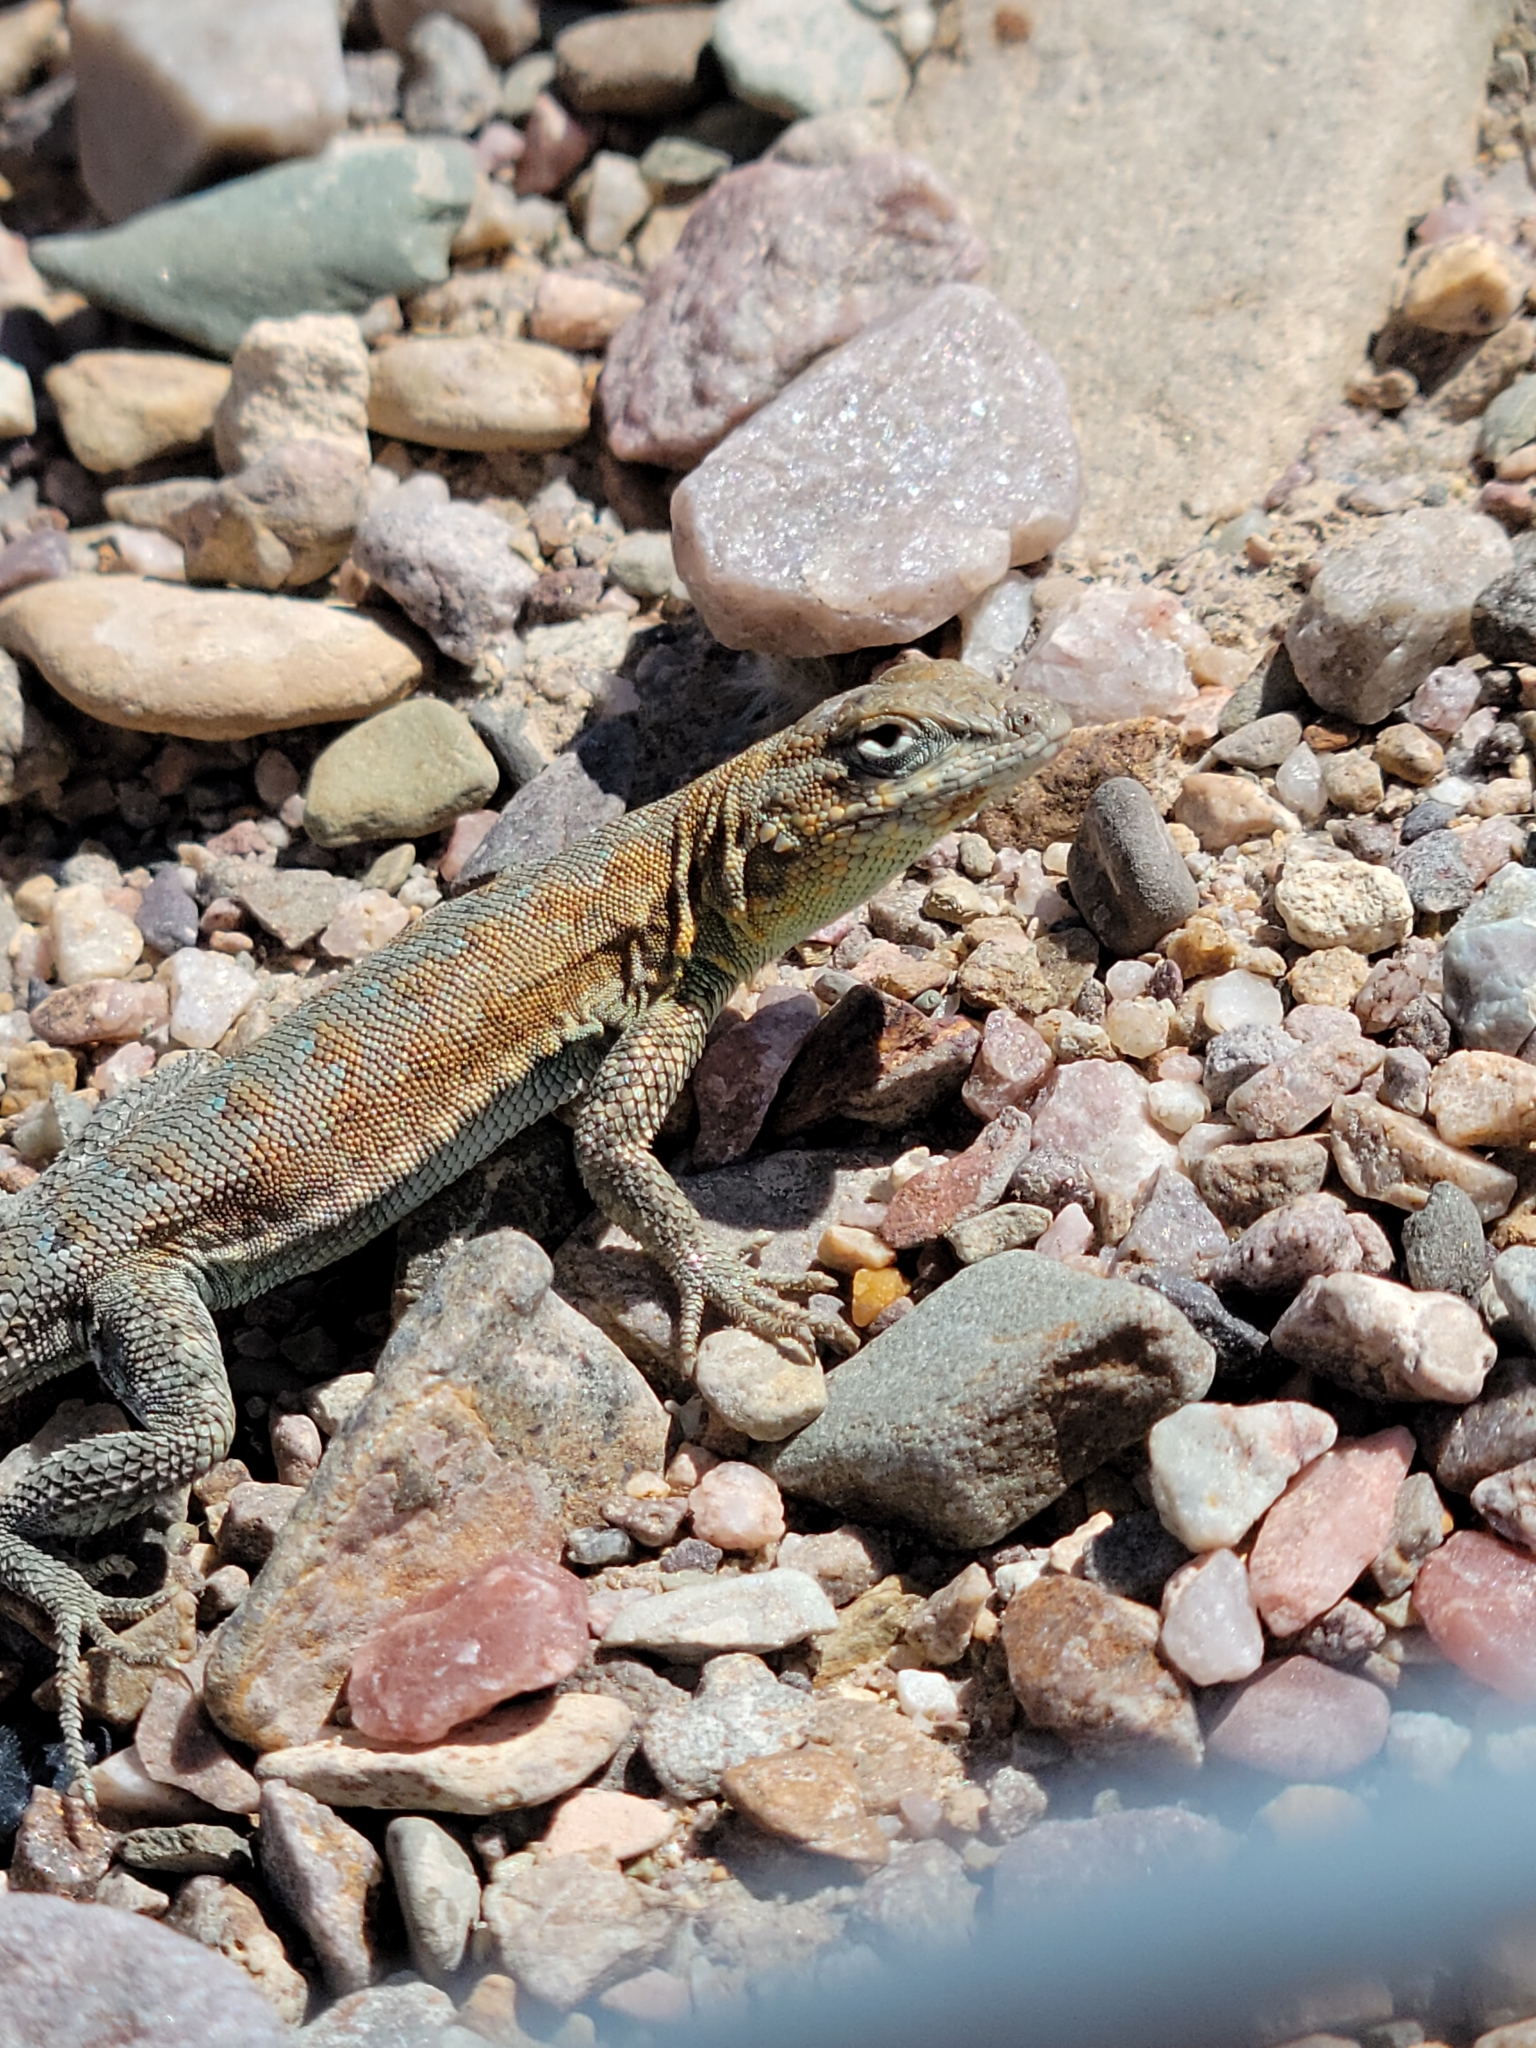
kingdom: Animalia
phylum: Chordata
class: Squamata
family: Phrynosomatidae
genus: Uta
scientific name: Uta stansburiana
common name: Side-blotched lizard
